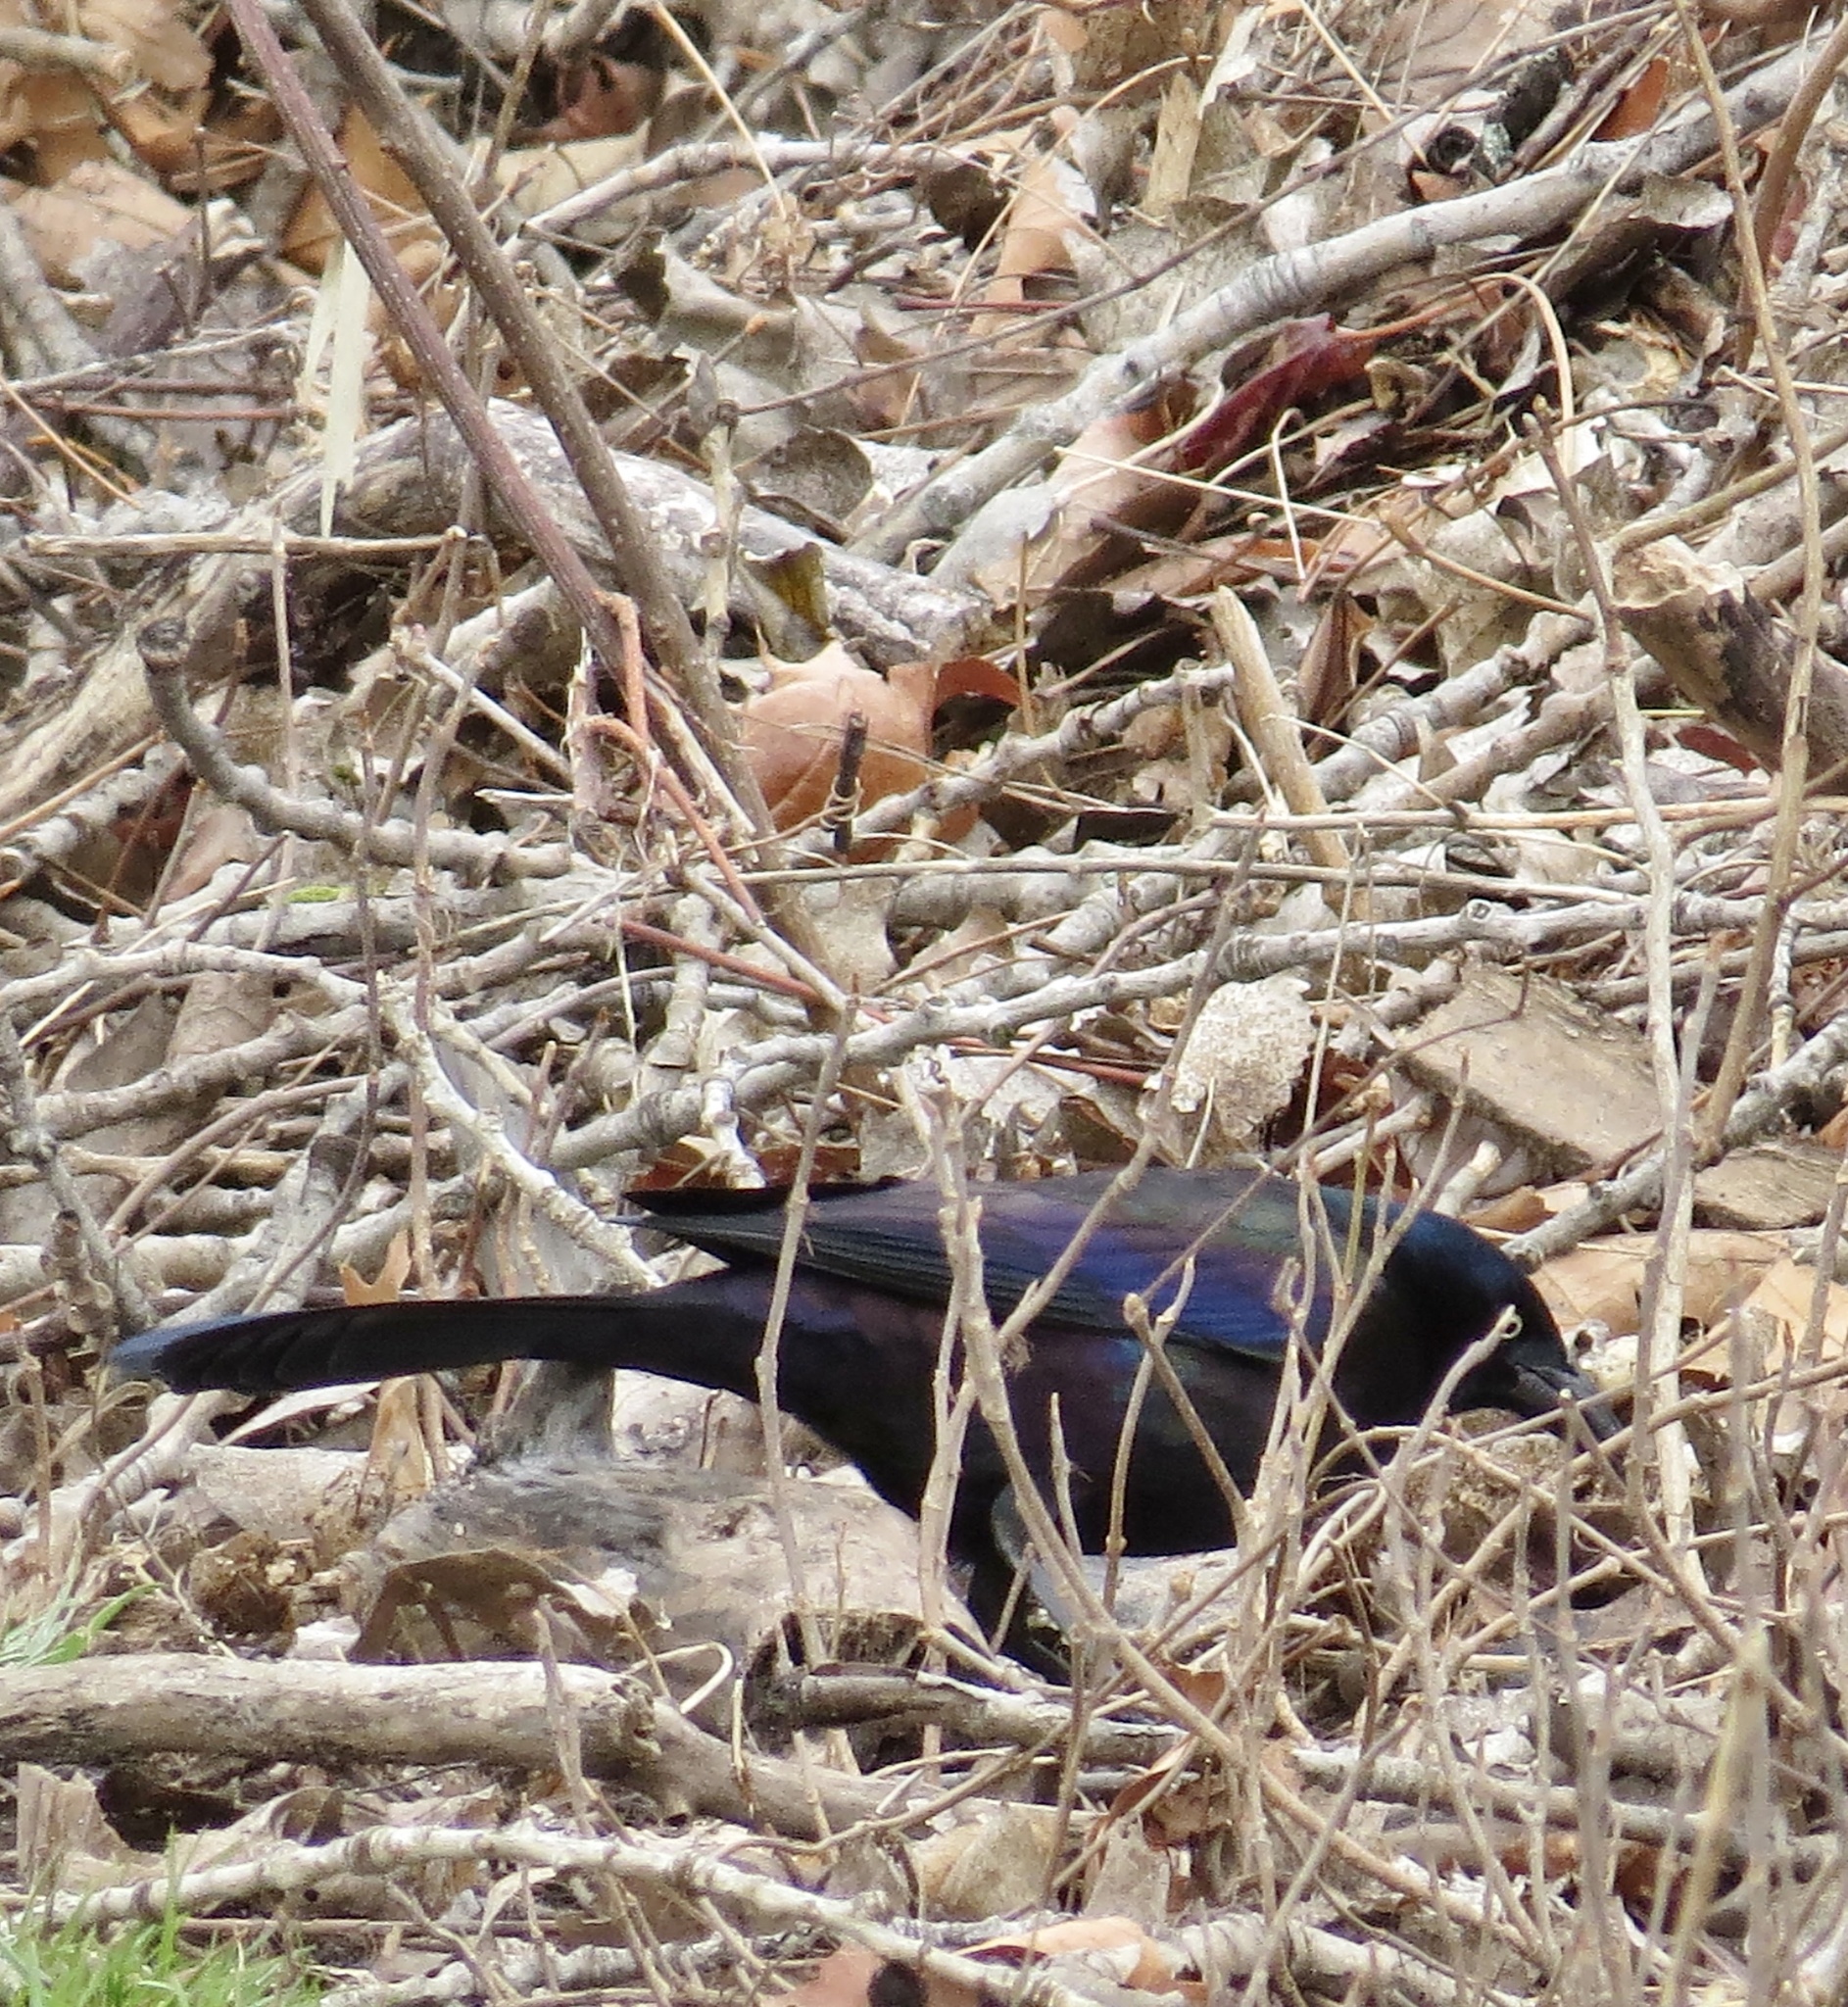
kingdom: Animalia
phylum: Chordata
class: Aves
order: Passeriformes
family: Icteridae
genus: Quiscalus
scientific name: Quiscalus quiscula
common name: Common grackle
